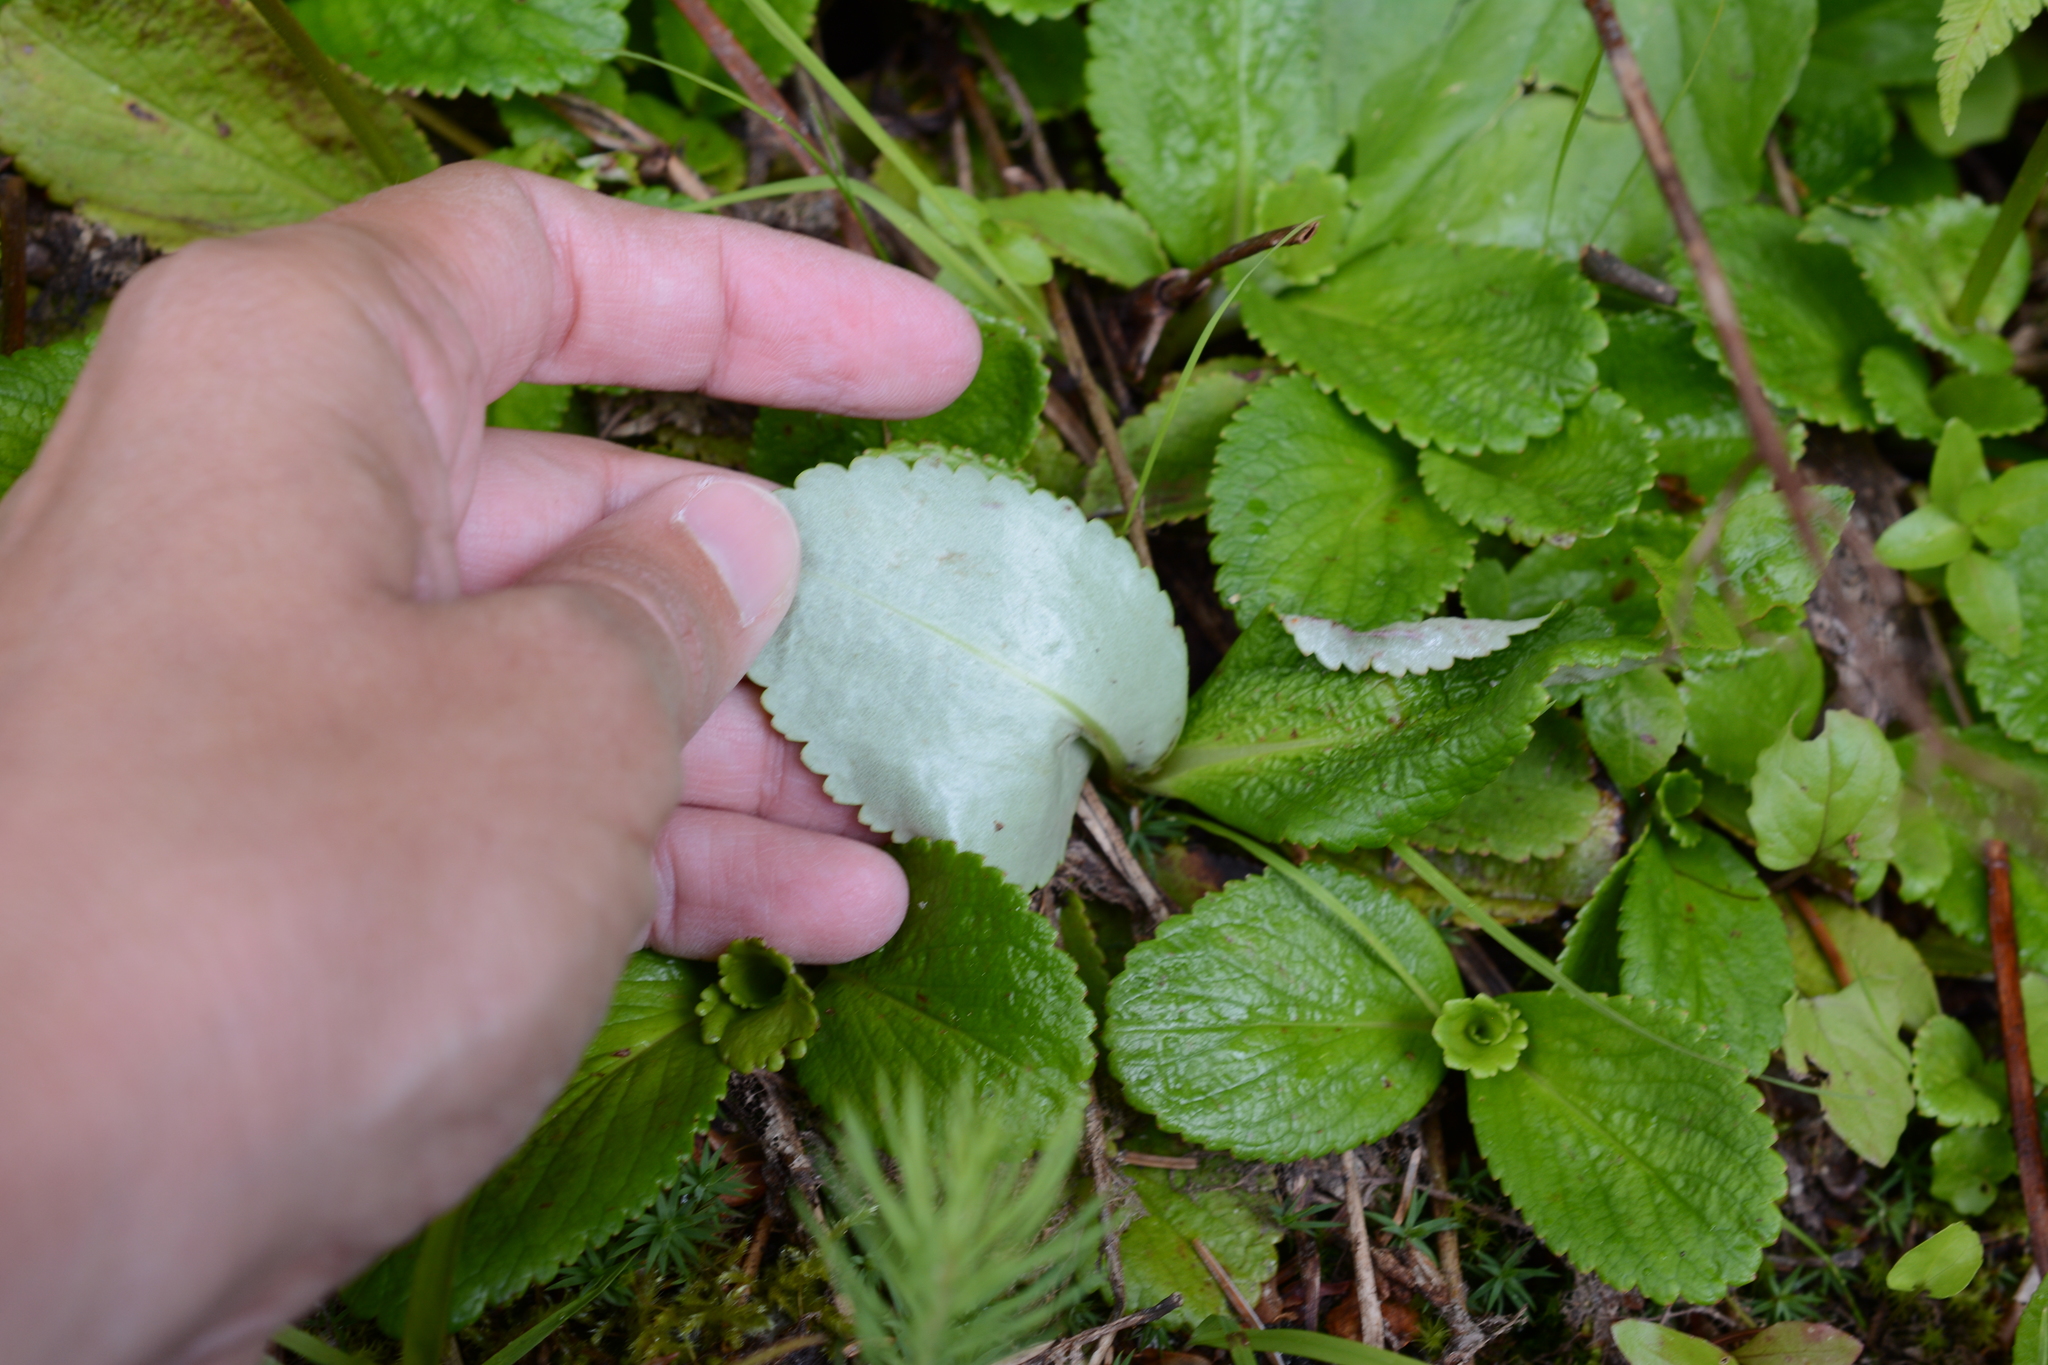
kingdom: Plantae
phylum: Tracheophyta
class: Magnoliopsida
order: Saxifragales
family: Saxifragaceae
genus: Leptarrhena
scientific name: Leptarrhena pyrolifolia
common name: Leatherleaf-saxifrage
